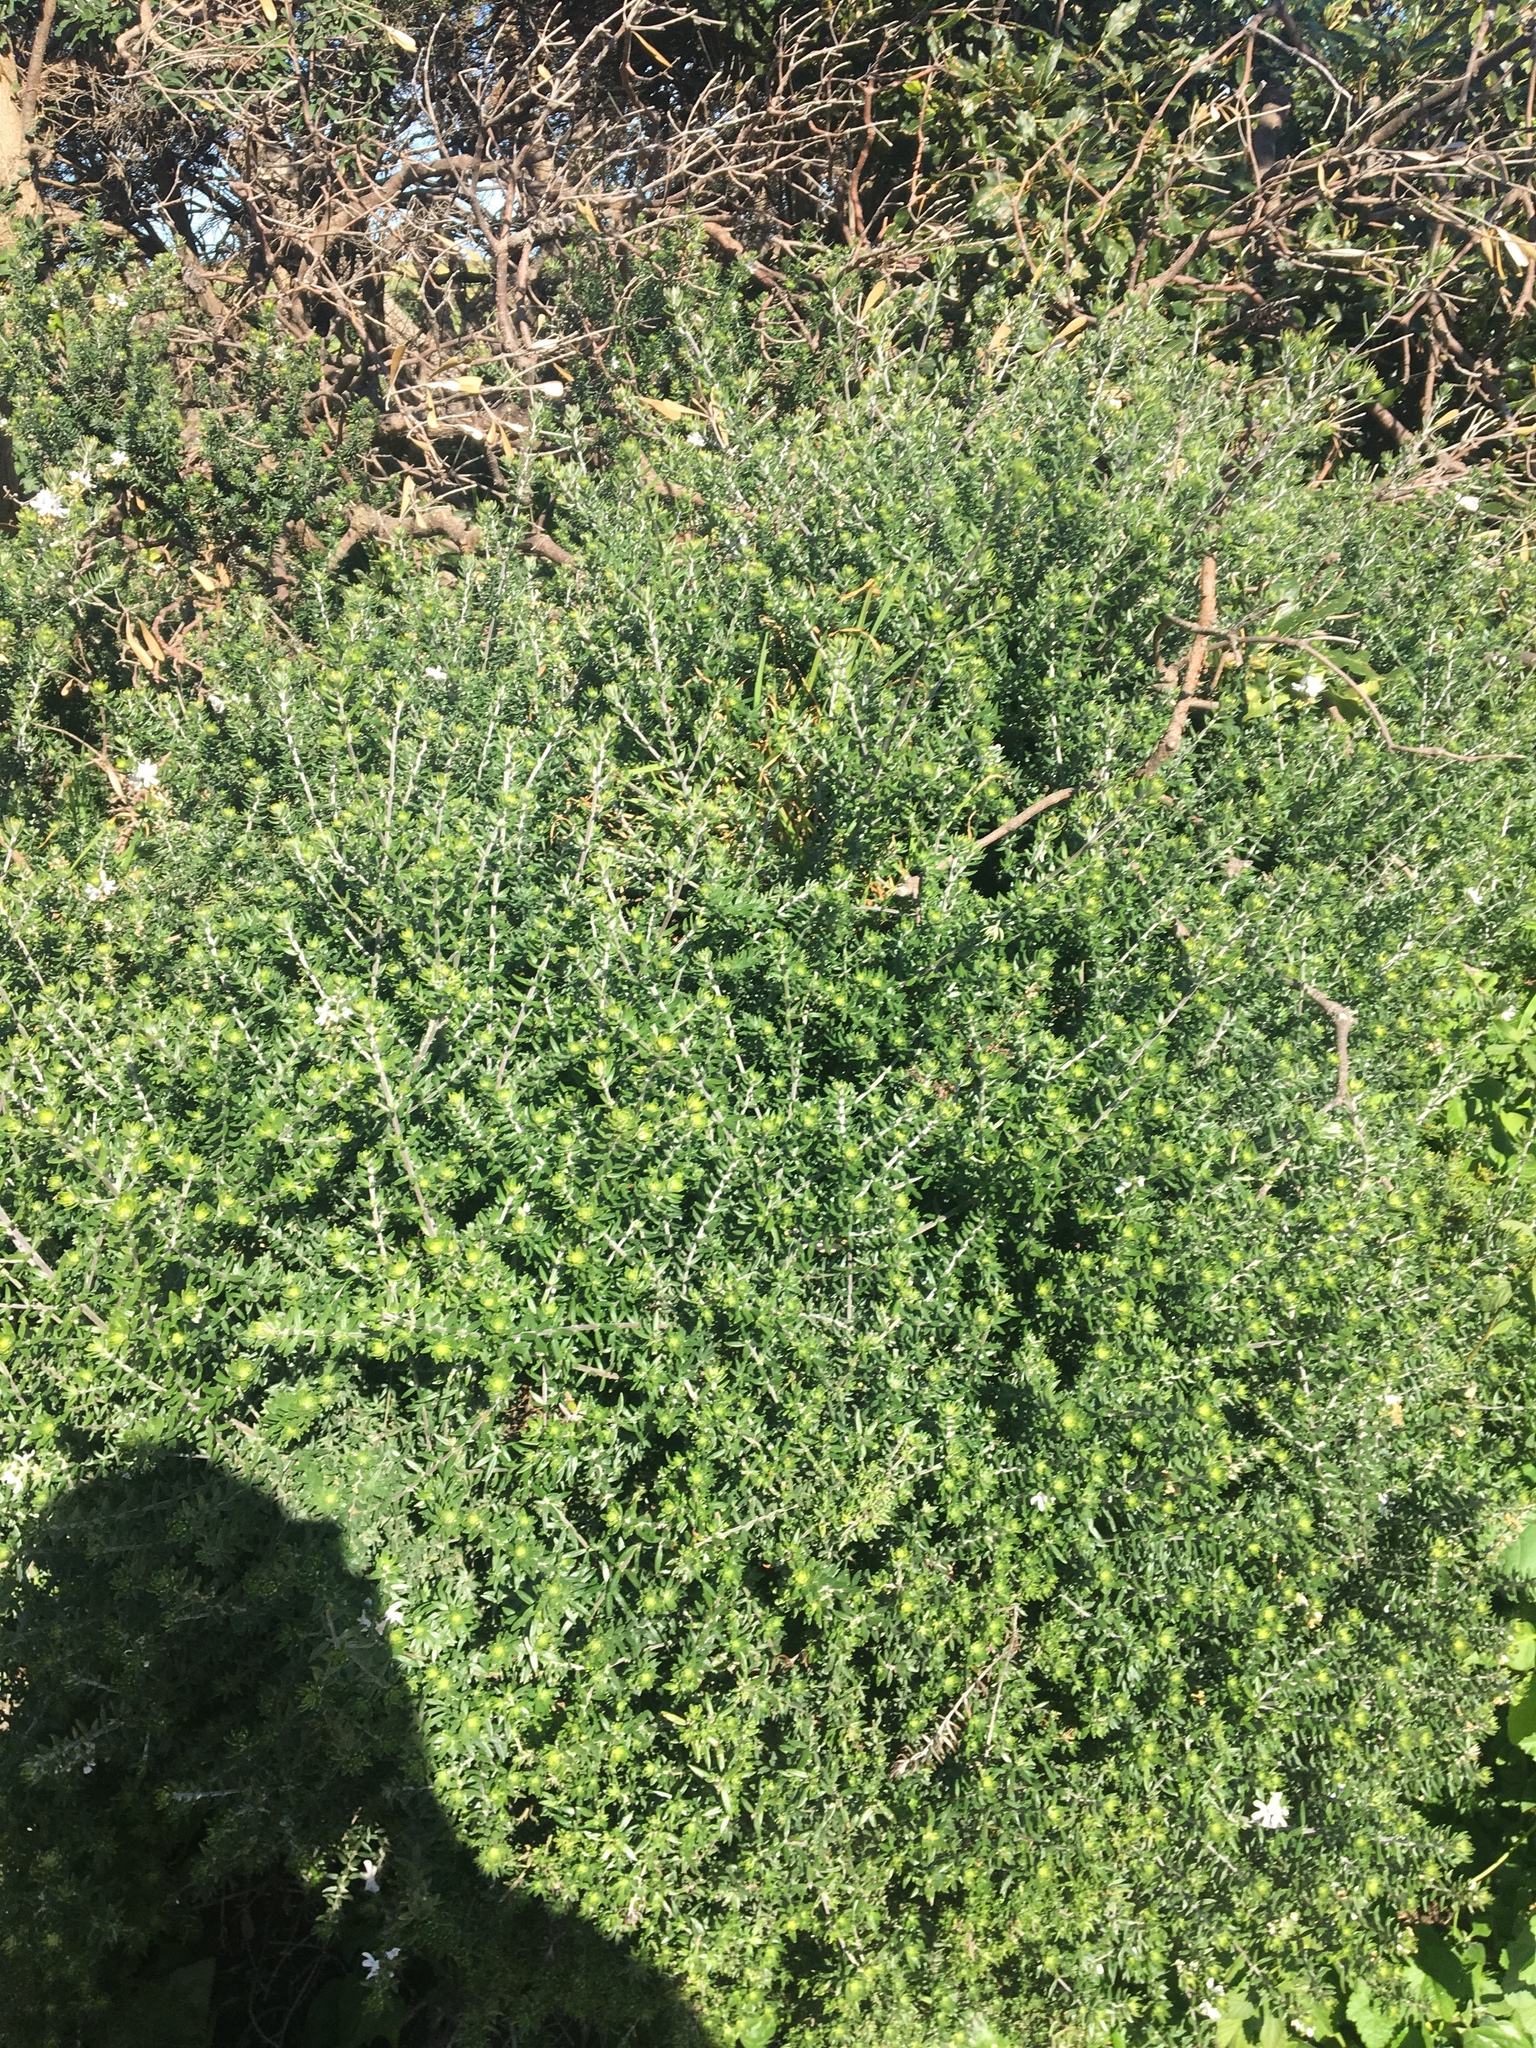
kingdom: Plantae
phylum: Tracheophyta
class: Magnoliopsida
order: Lamiales
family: Lamiaceae
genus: Westringia
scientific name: Westringia fruticosa
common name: Coastal-rosemary
